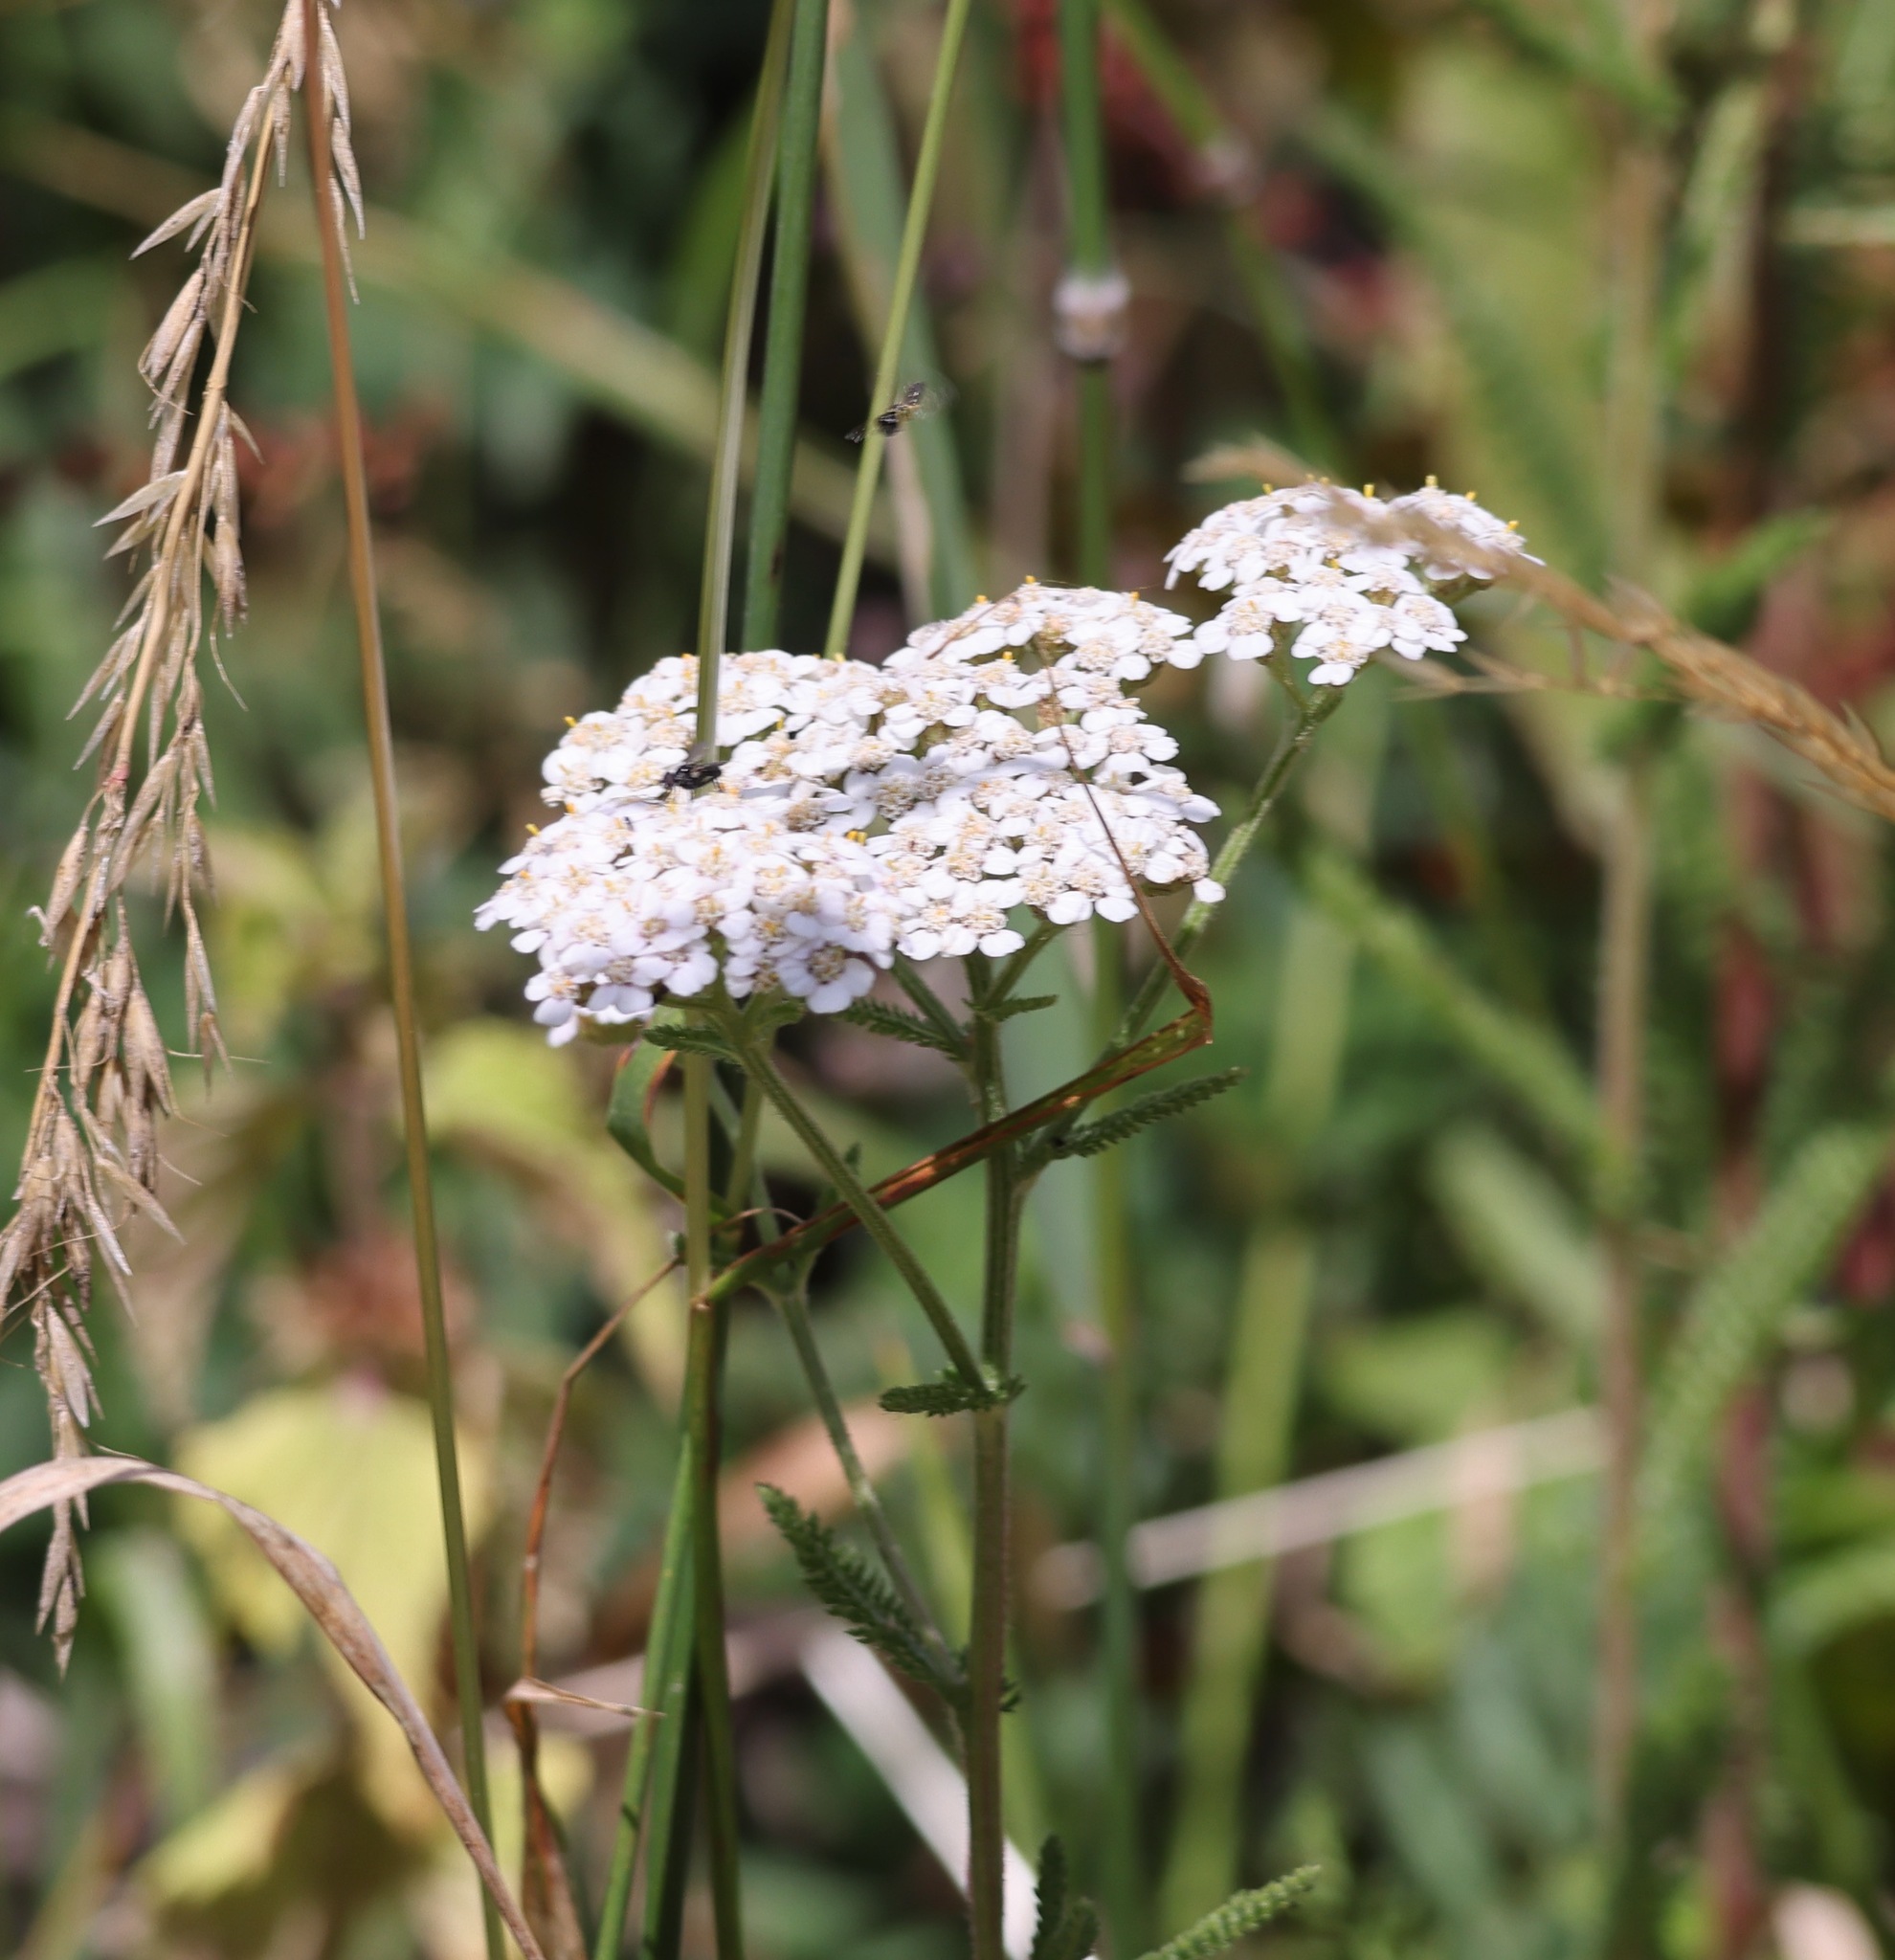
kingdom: Plantae
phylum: Tracheophyta
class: Magnoliopsida
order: Asterales
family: Asteraceae
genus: Achillea
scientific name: Achillea millefolium
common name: Yarrow
